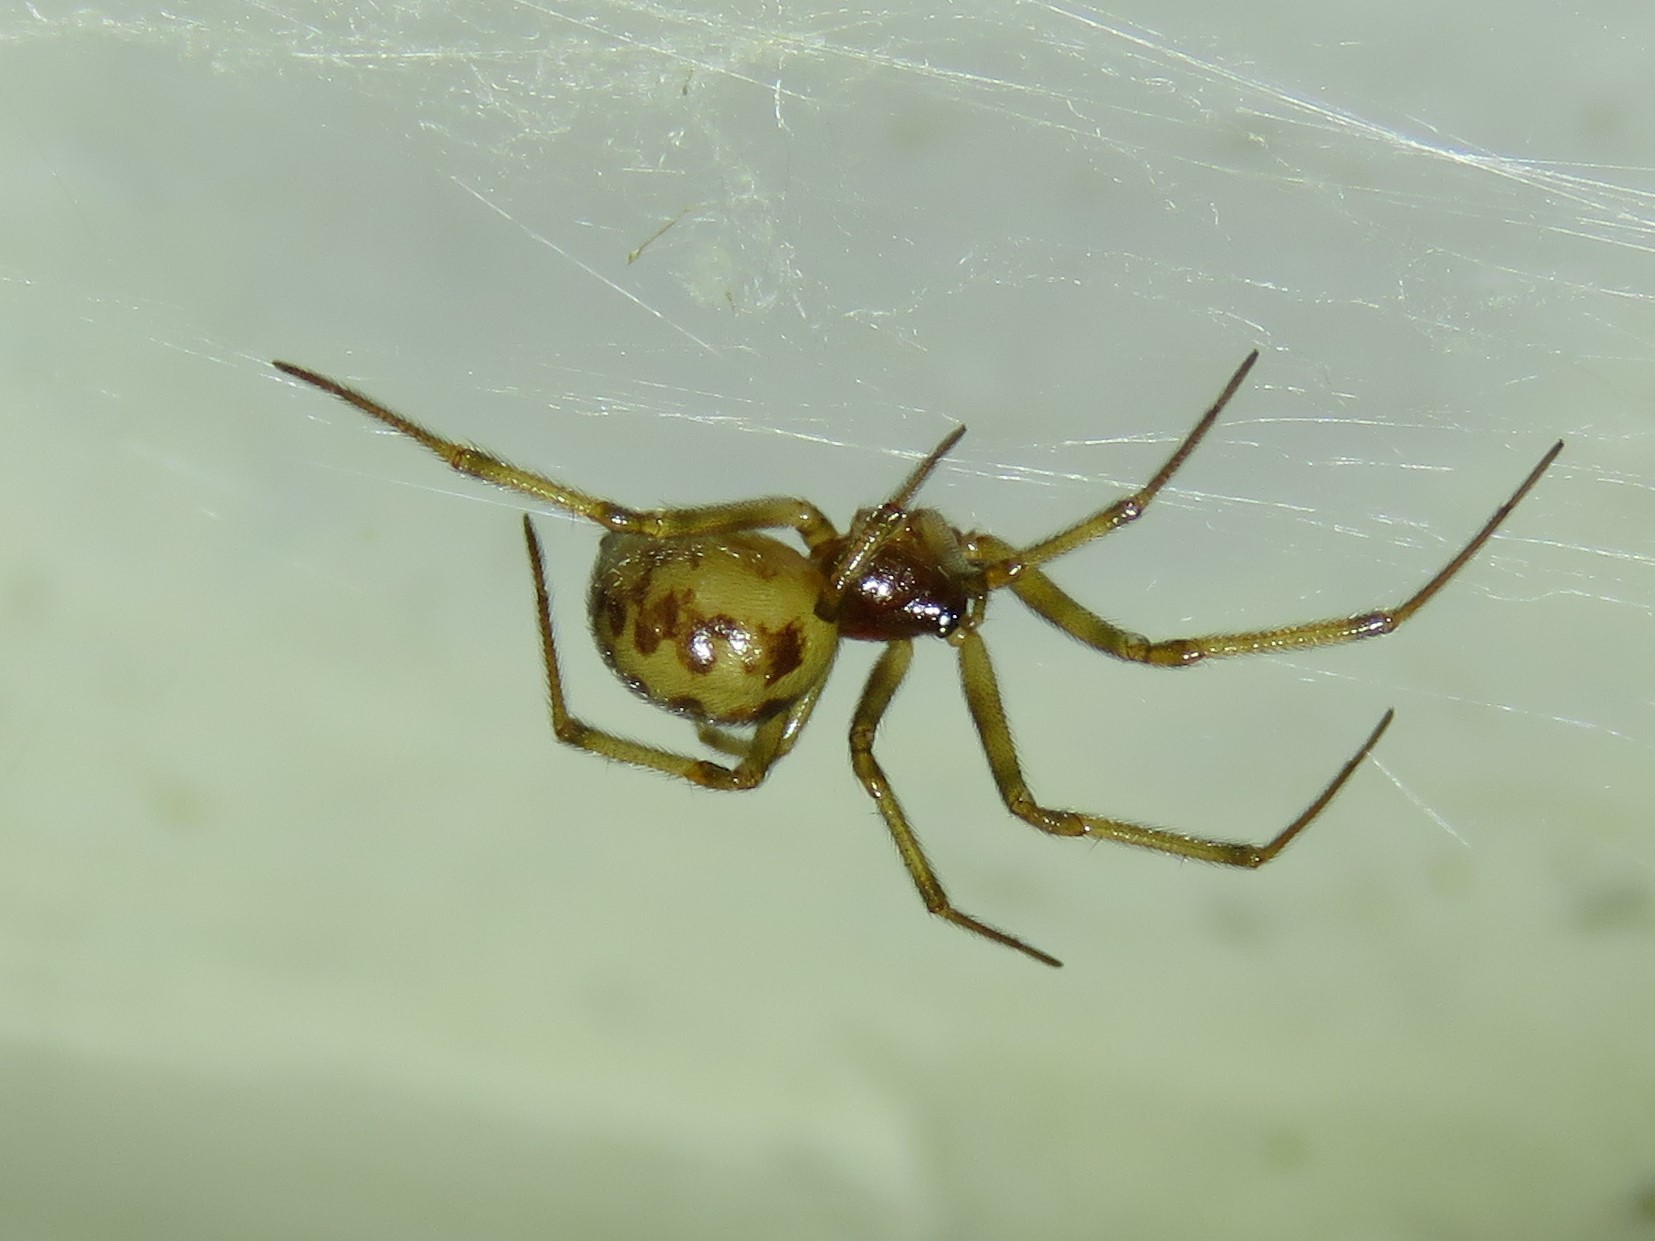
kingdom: Animalia
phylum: Arthropoda
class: Arachnida
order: Araneae
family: Theridiidae
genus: Steatoda
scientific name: Steatoda triangulosa
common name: Triangulate bud spider
